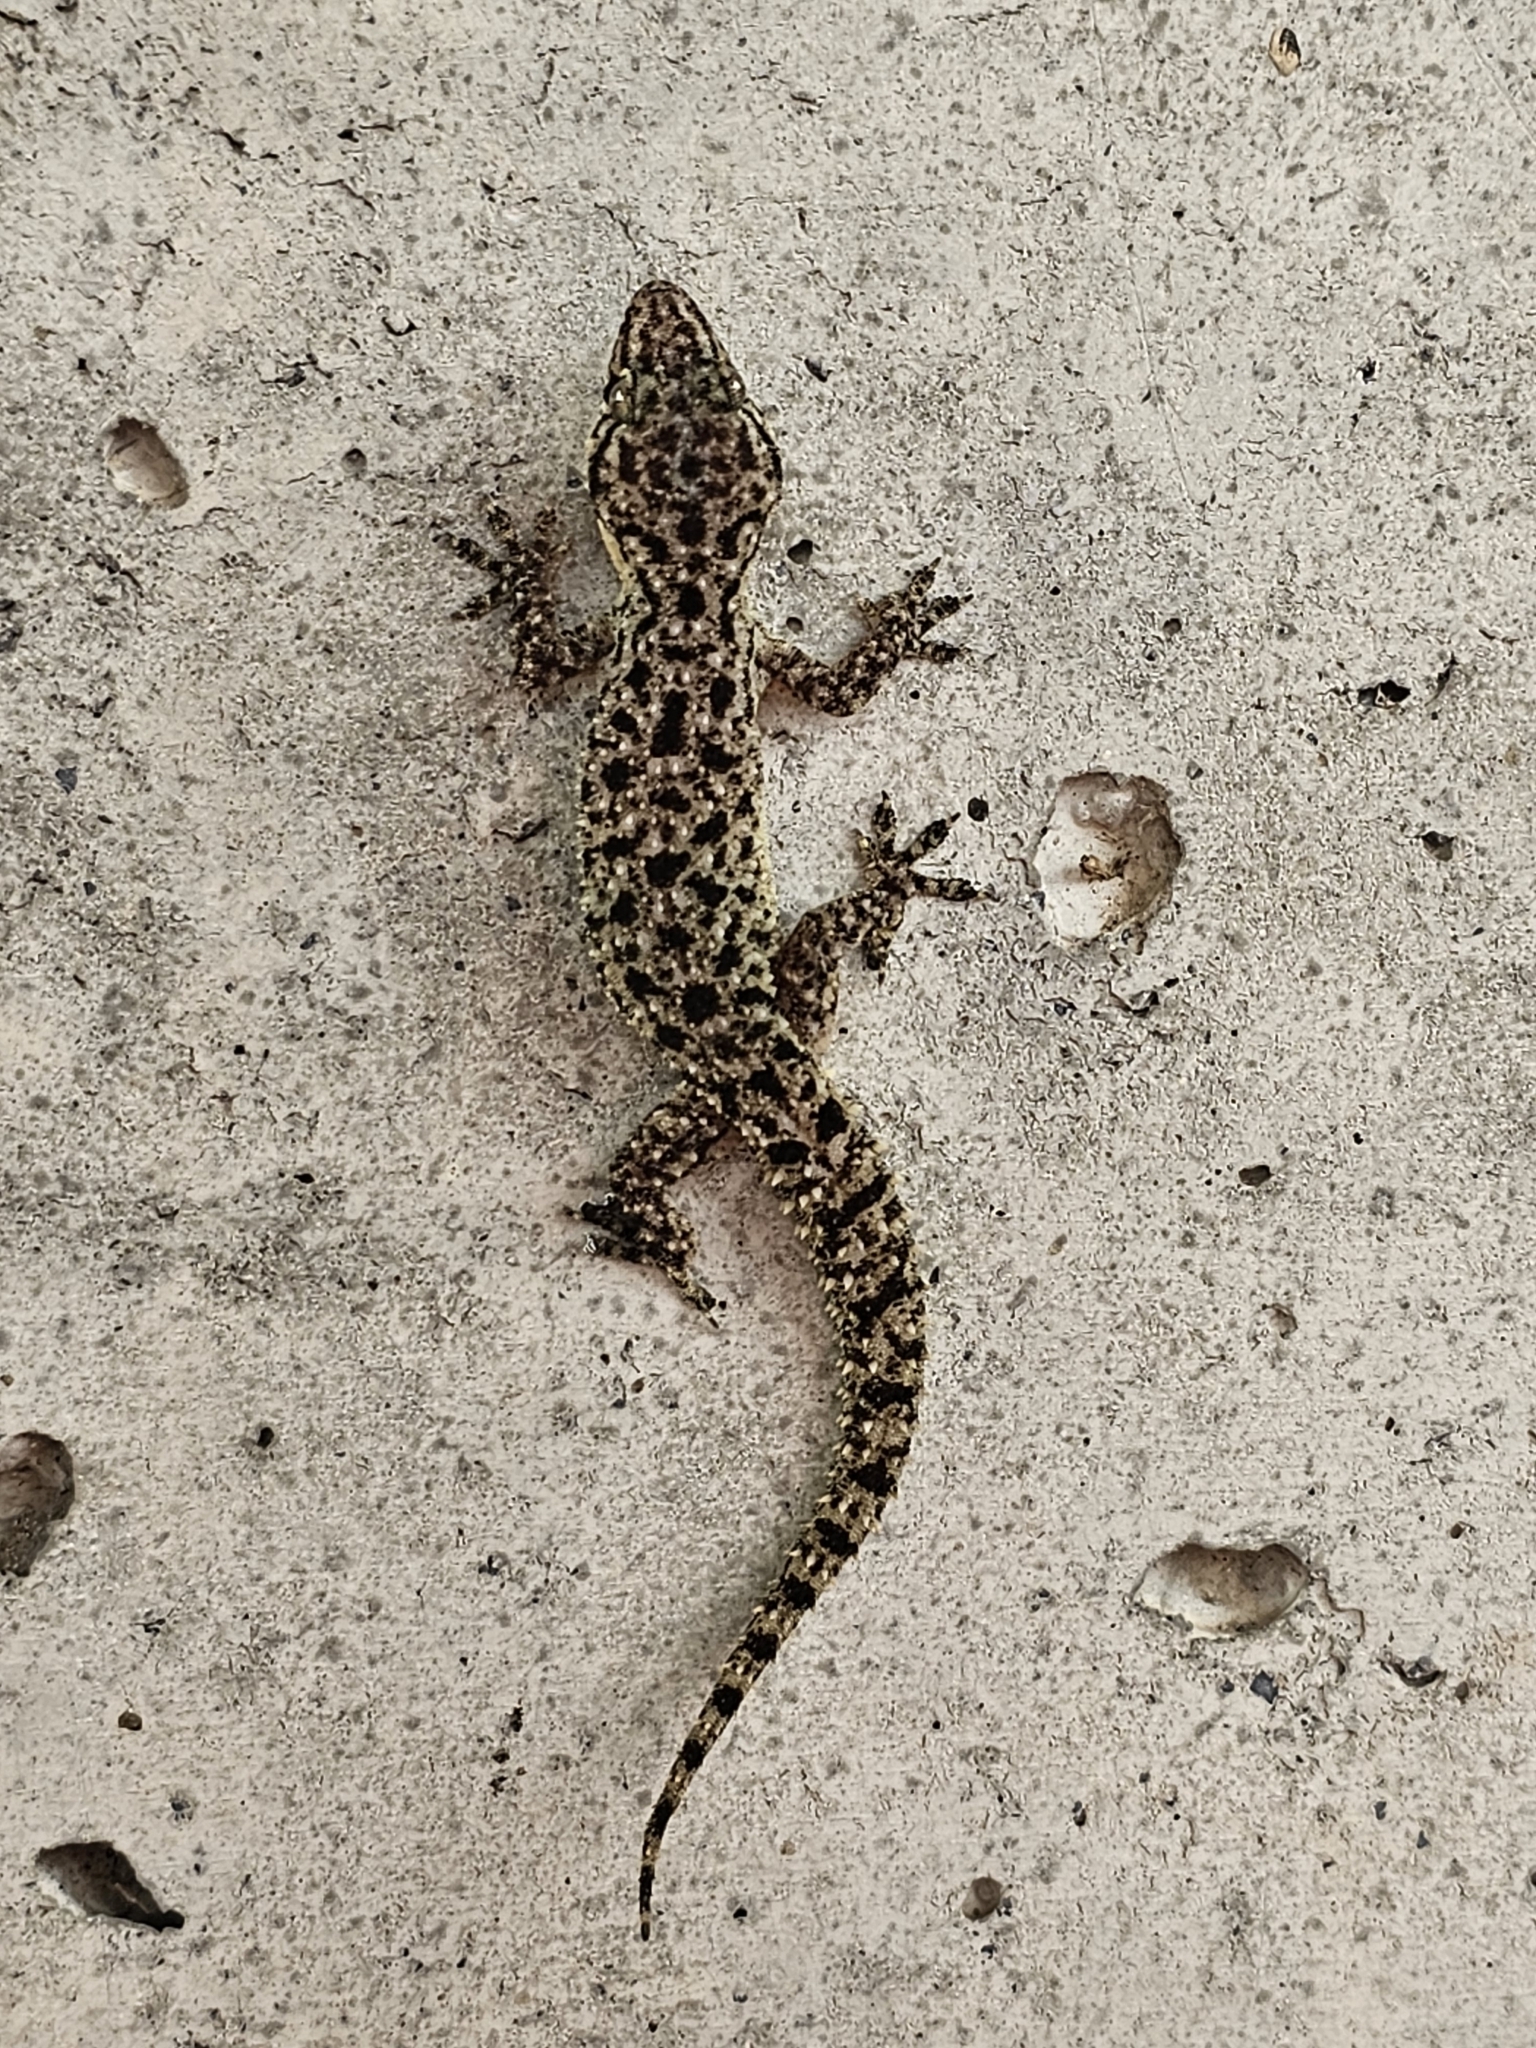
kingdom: Animalia
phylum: Chordata
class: Squamata
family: Gekkonidae
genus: Hemidactylus
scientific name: Hemidactylus parvimaculatus
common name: Spotted house gecko
